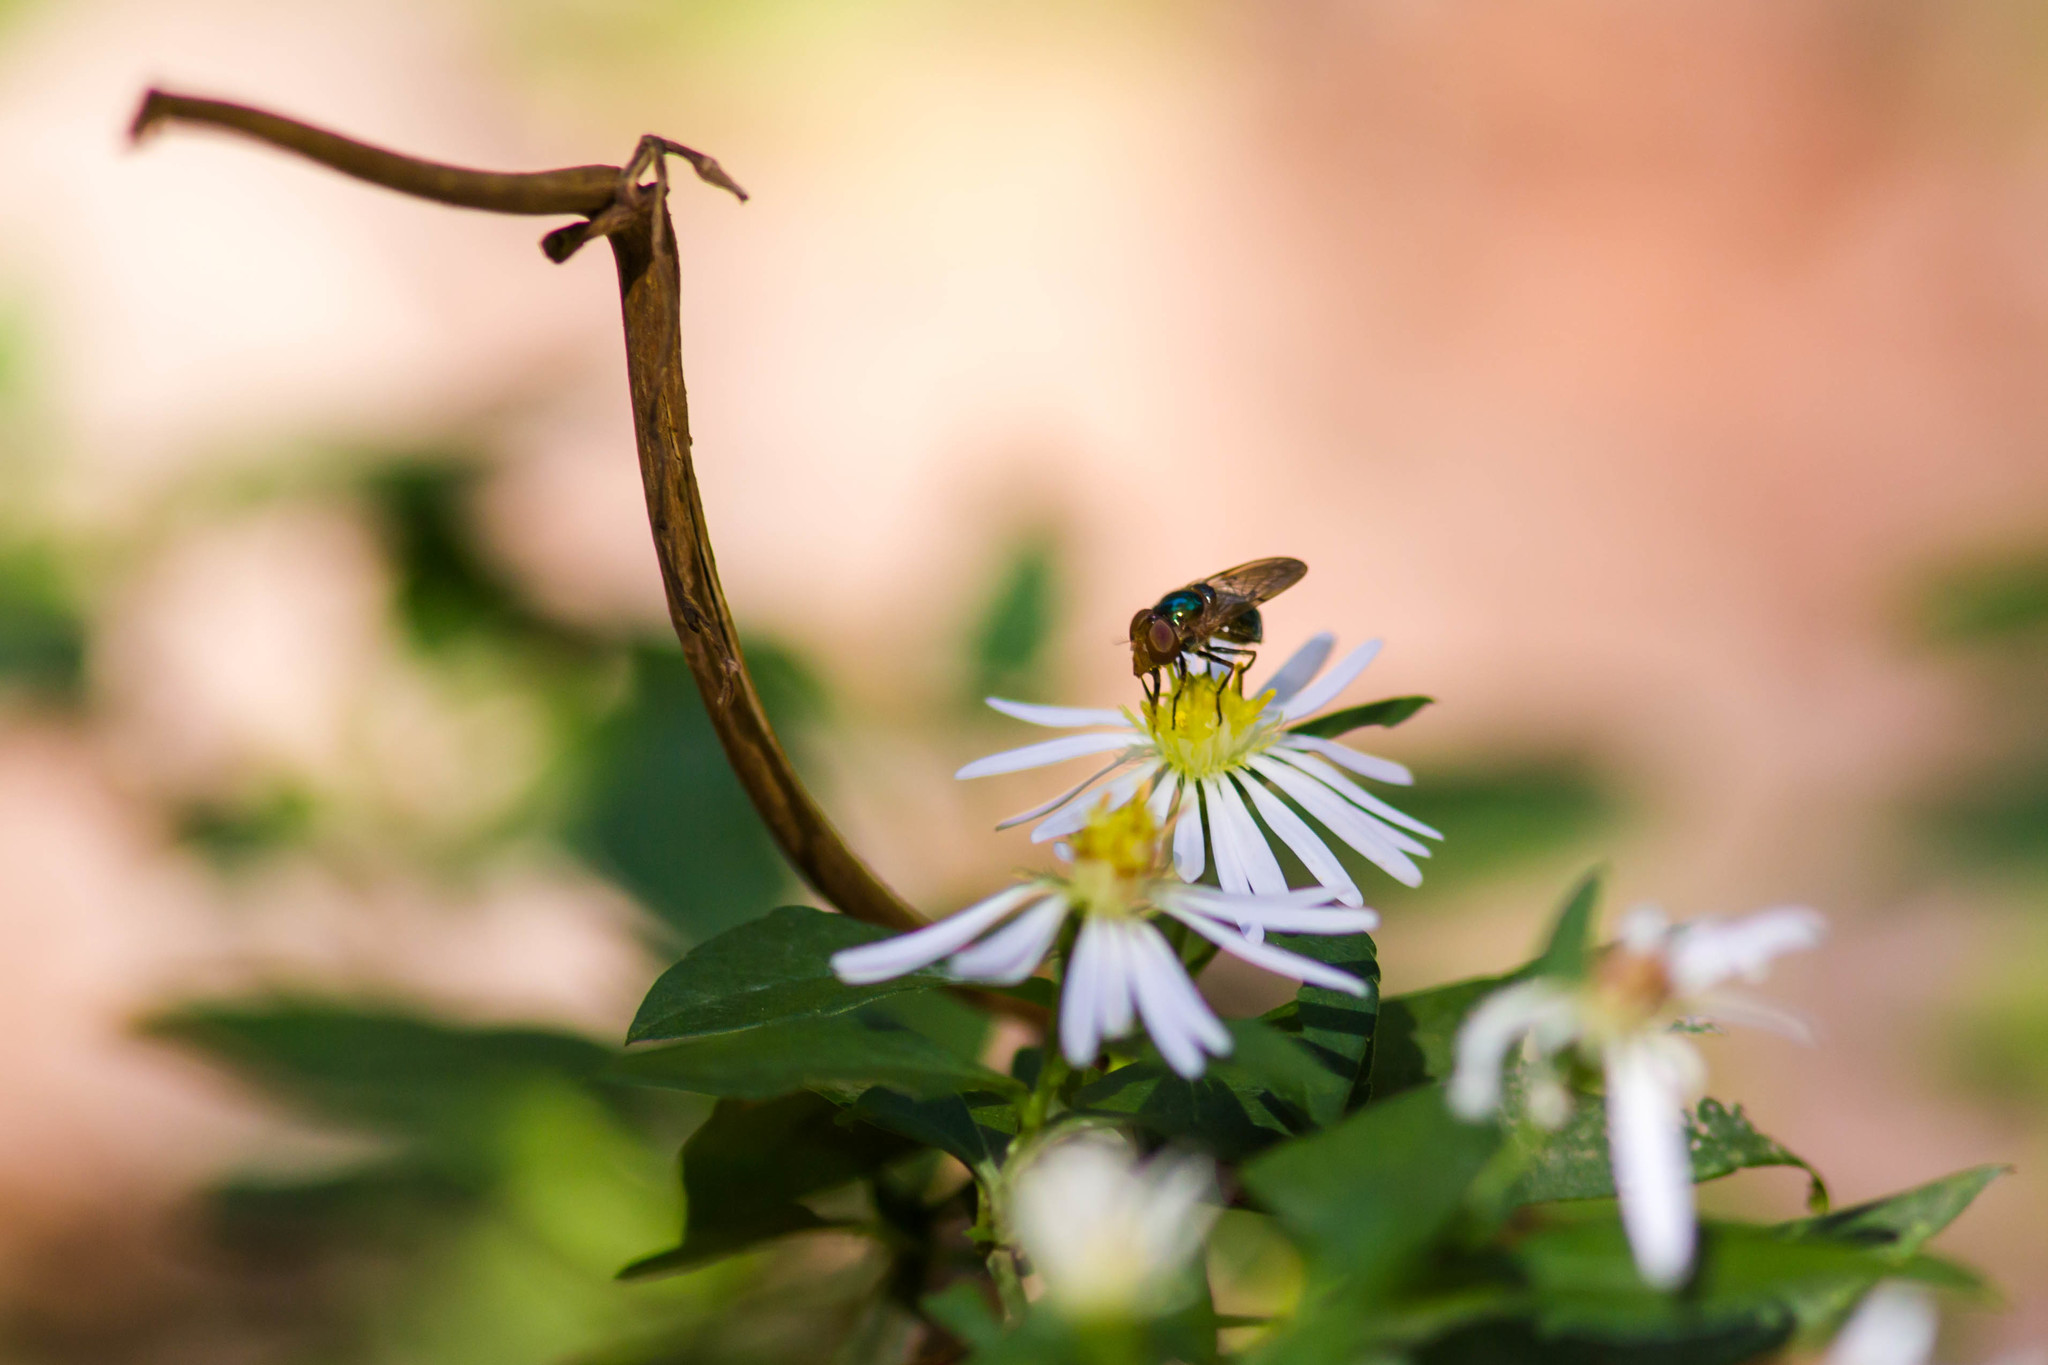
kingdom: Animalia
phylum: Arthropoda
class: Insecta
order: Diptera
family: Syrphidae
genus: Copestylum
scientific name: Copestylum vesicularium
